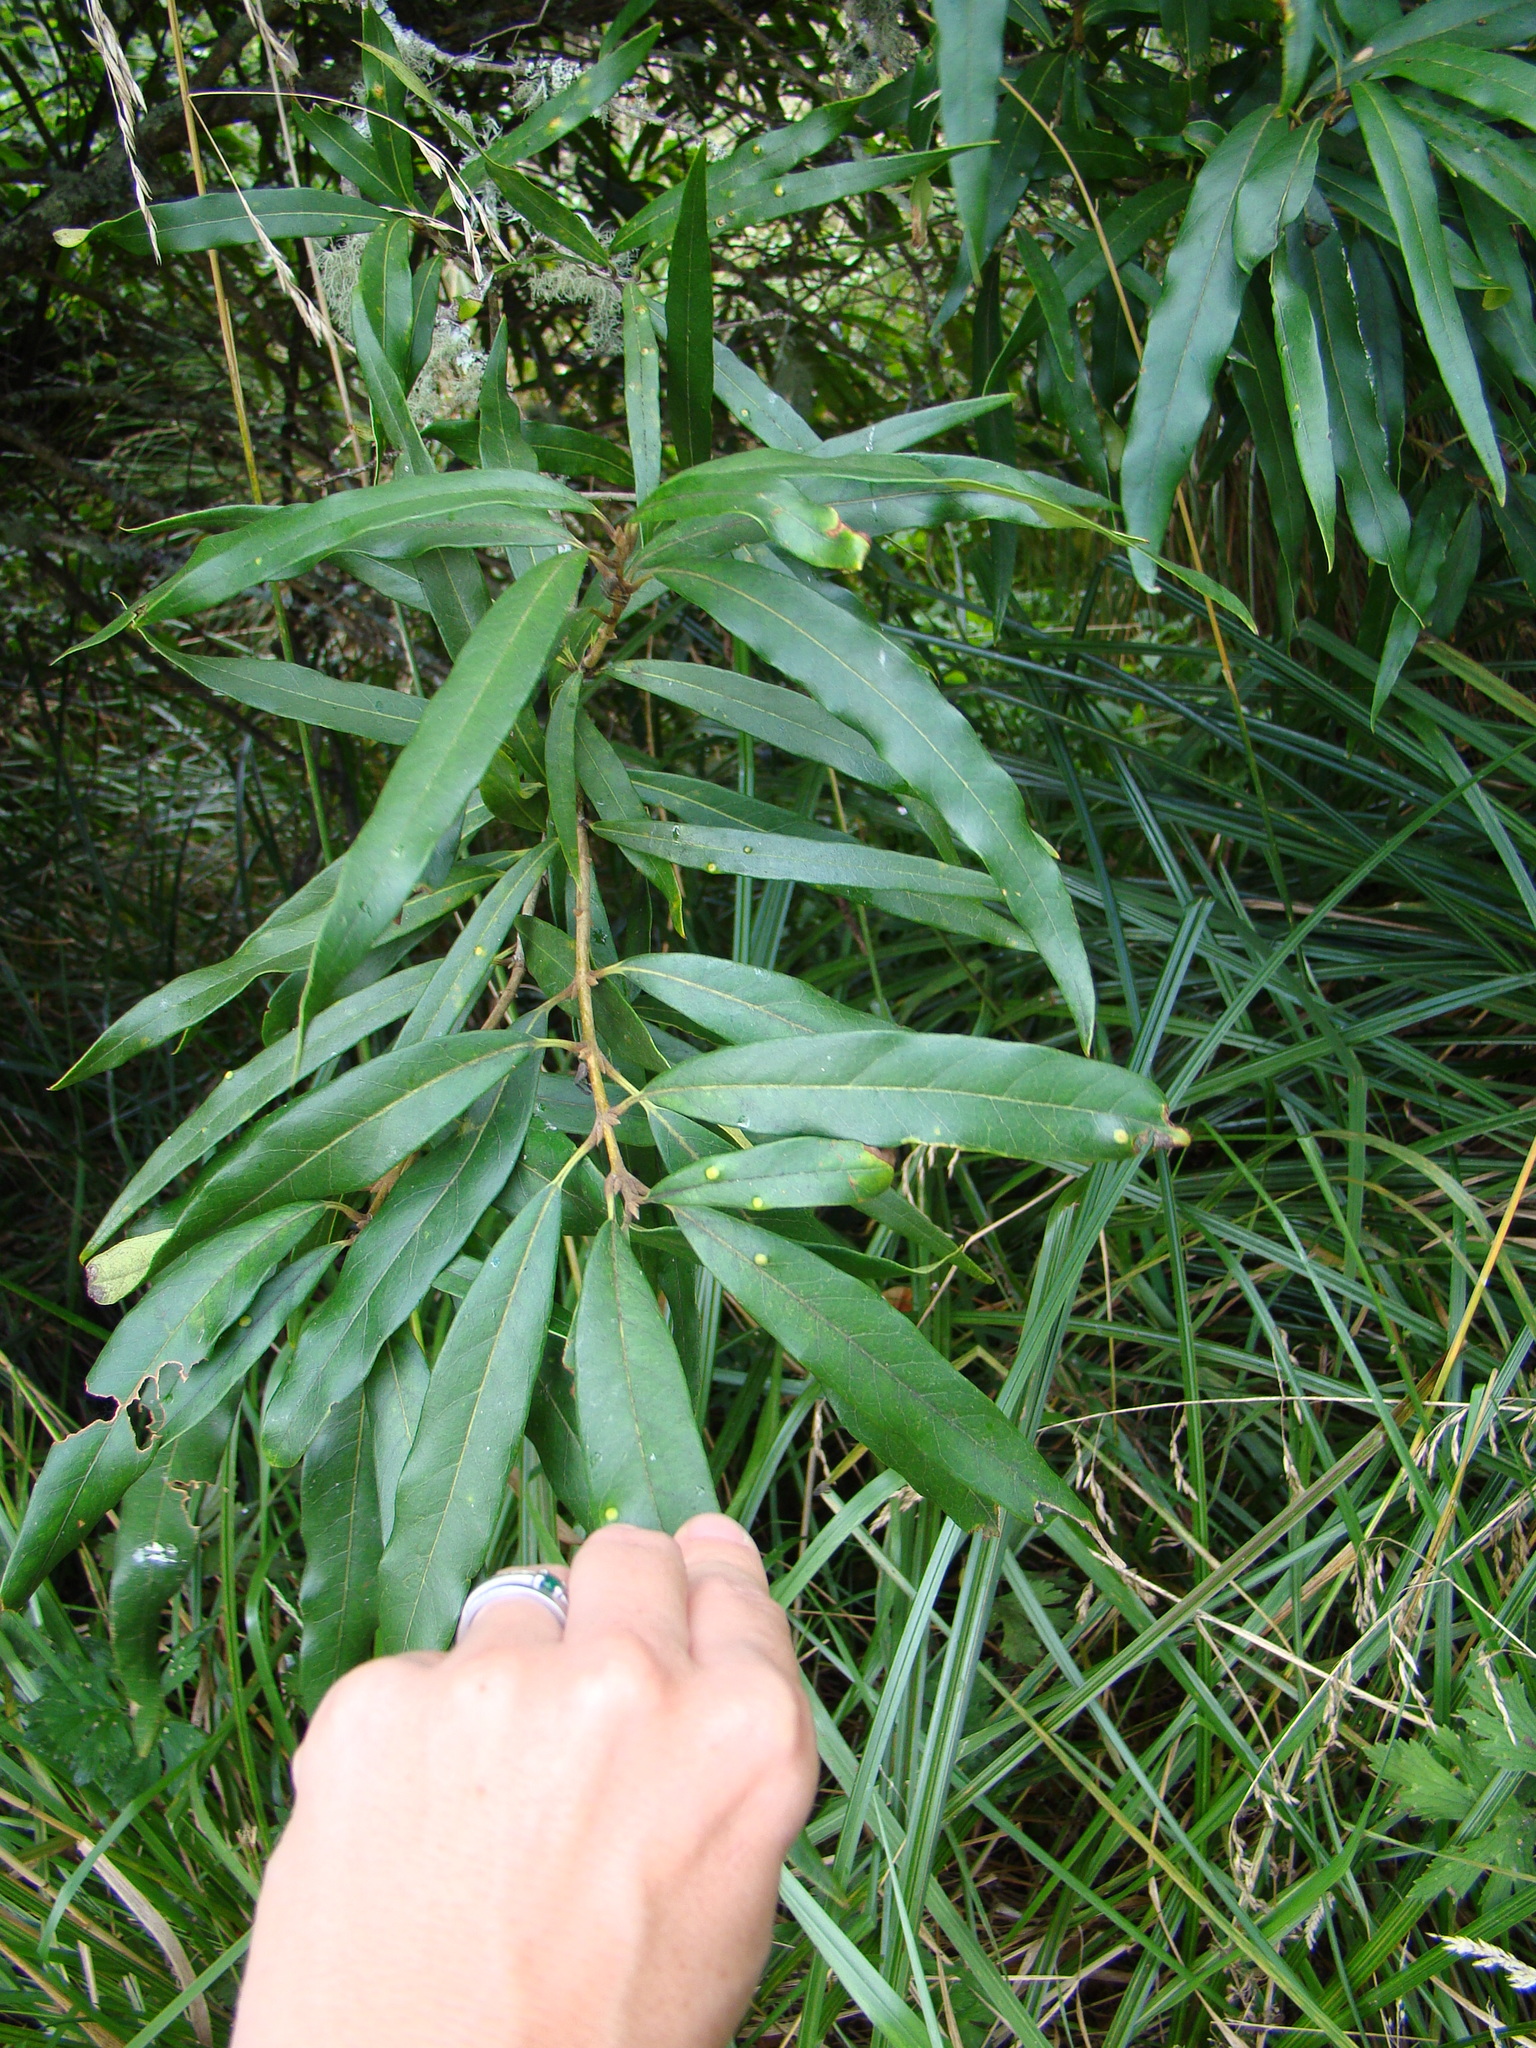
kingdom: Plantae
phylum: Tracheophyta
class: Magnoliopsida
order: Lamiales
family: Oleaceae
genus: Nestegis
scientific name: Nestegis cunninghamii
